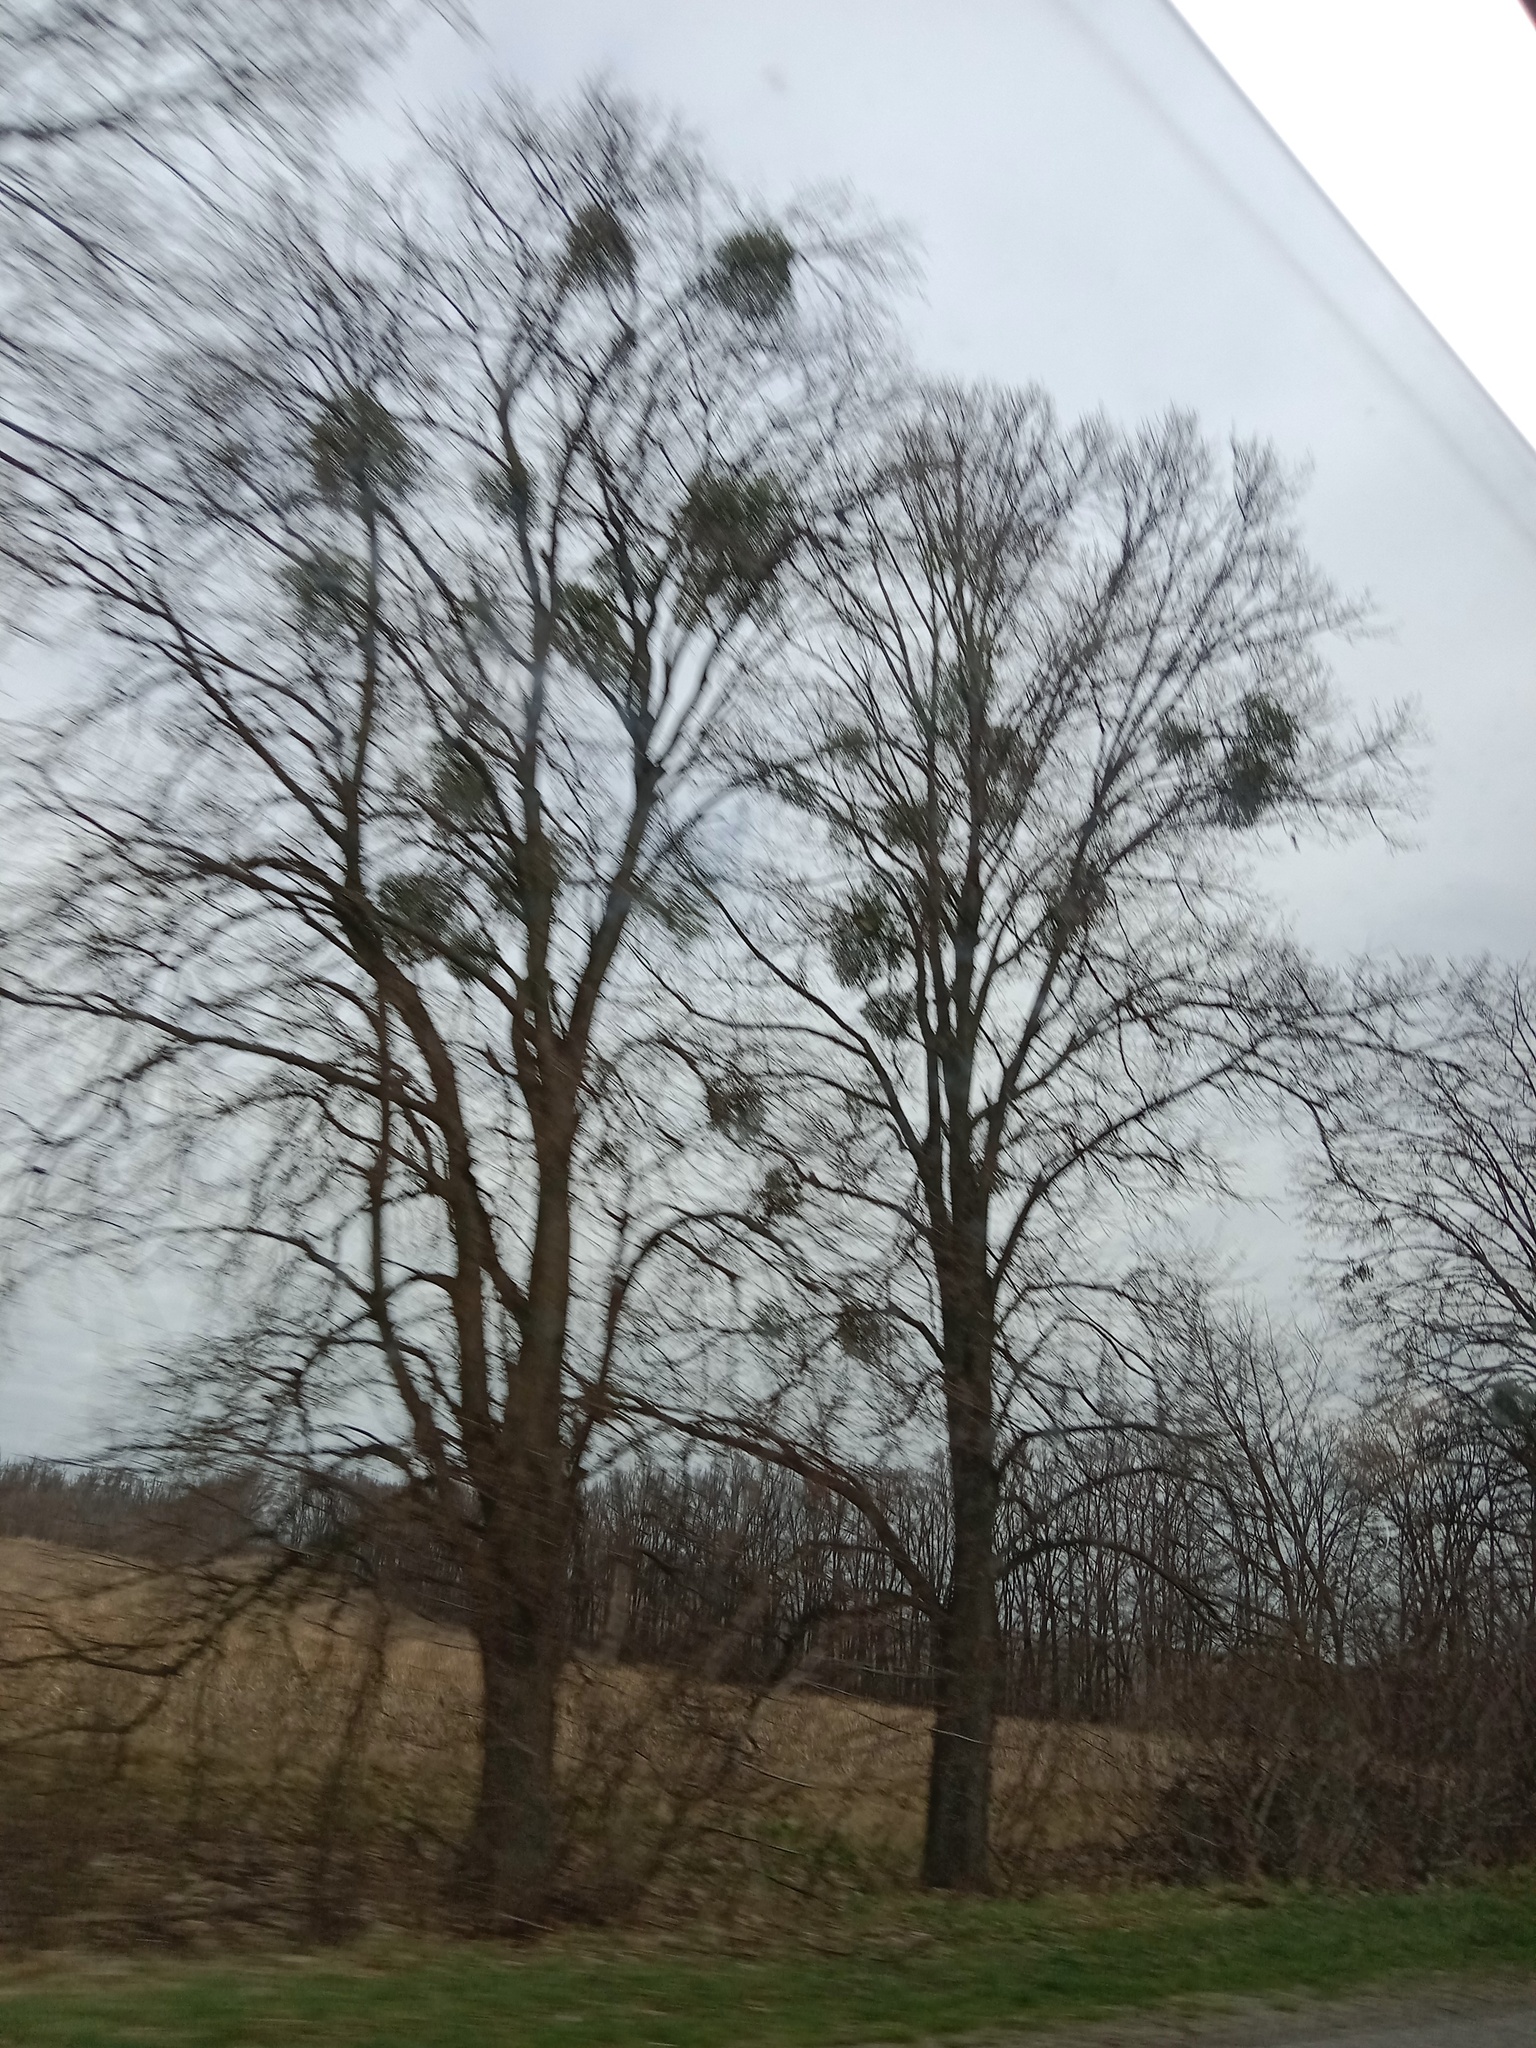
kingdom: Plantae
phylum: Tracheophyta
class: Magnoliopsida
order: Santalales
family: Viscaceae
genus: Viscum
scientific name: Viscum album
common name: Mistletoe
